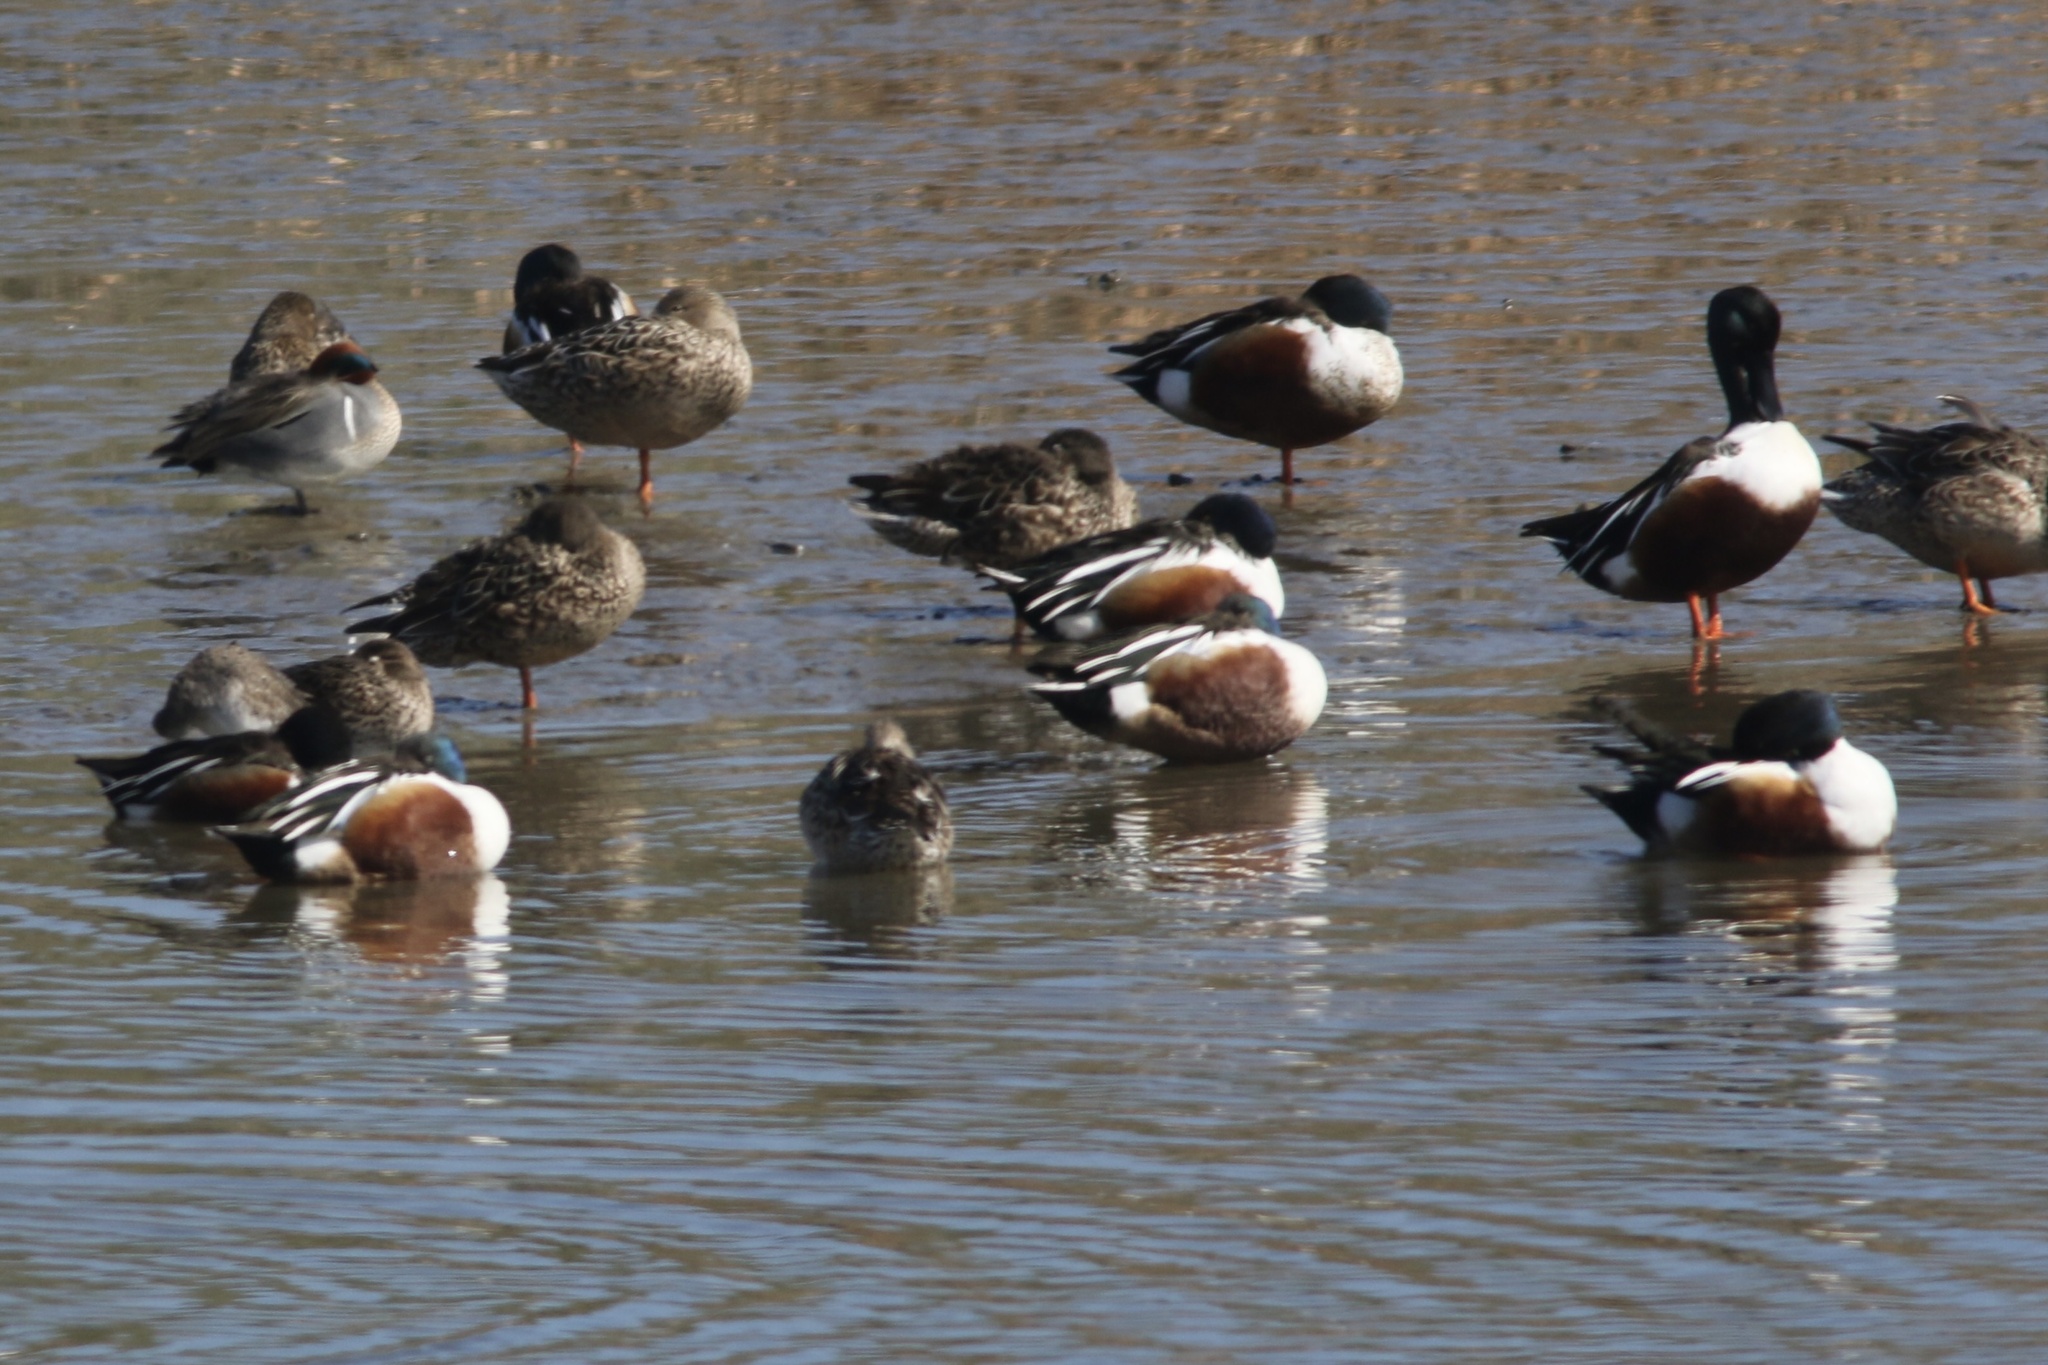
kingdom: Animalia
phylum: Chordata
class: Aves
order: Anseriformes
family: Anatidae
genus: Spatula
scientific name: Spatula clypeata
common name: Northern shoveler
